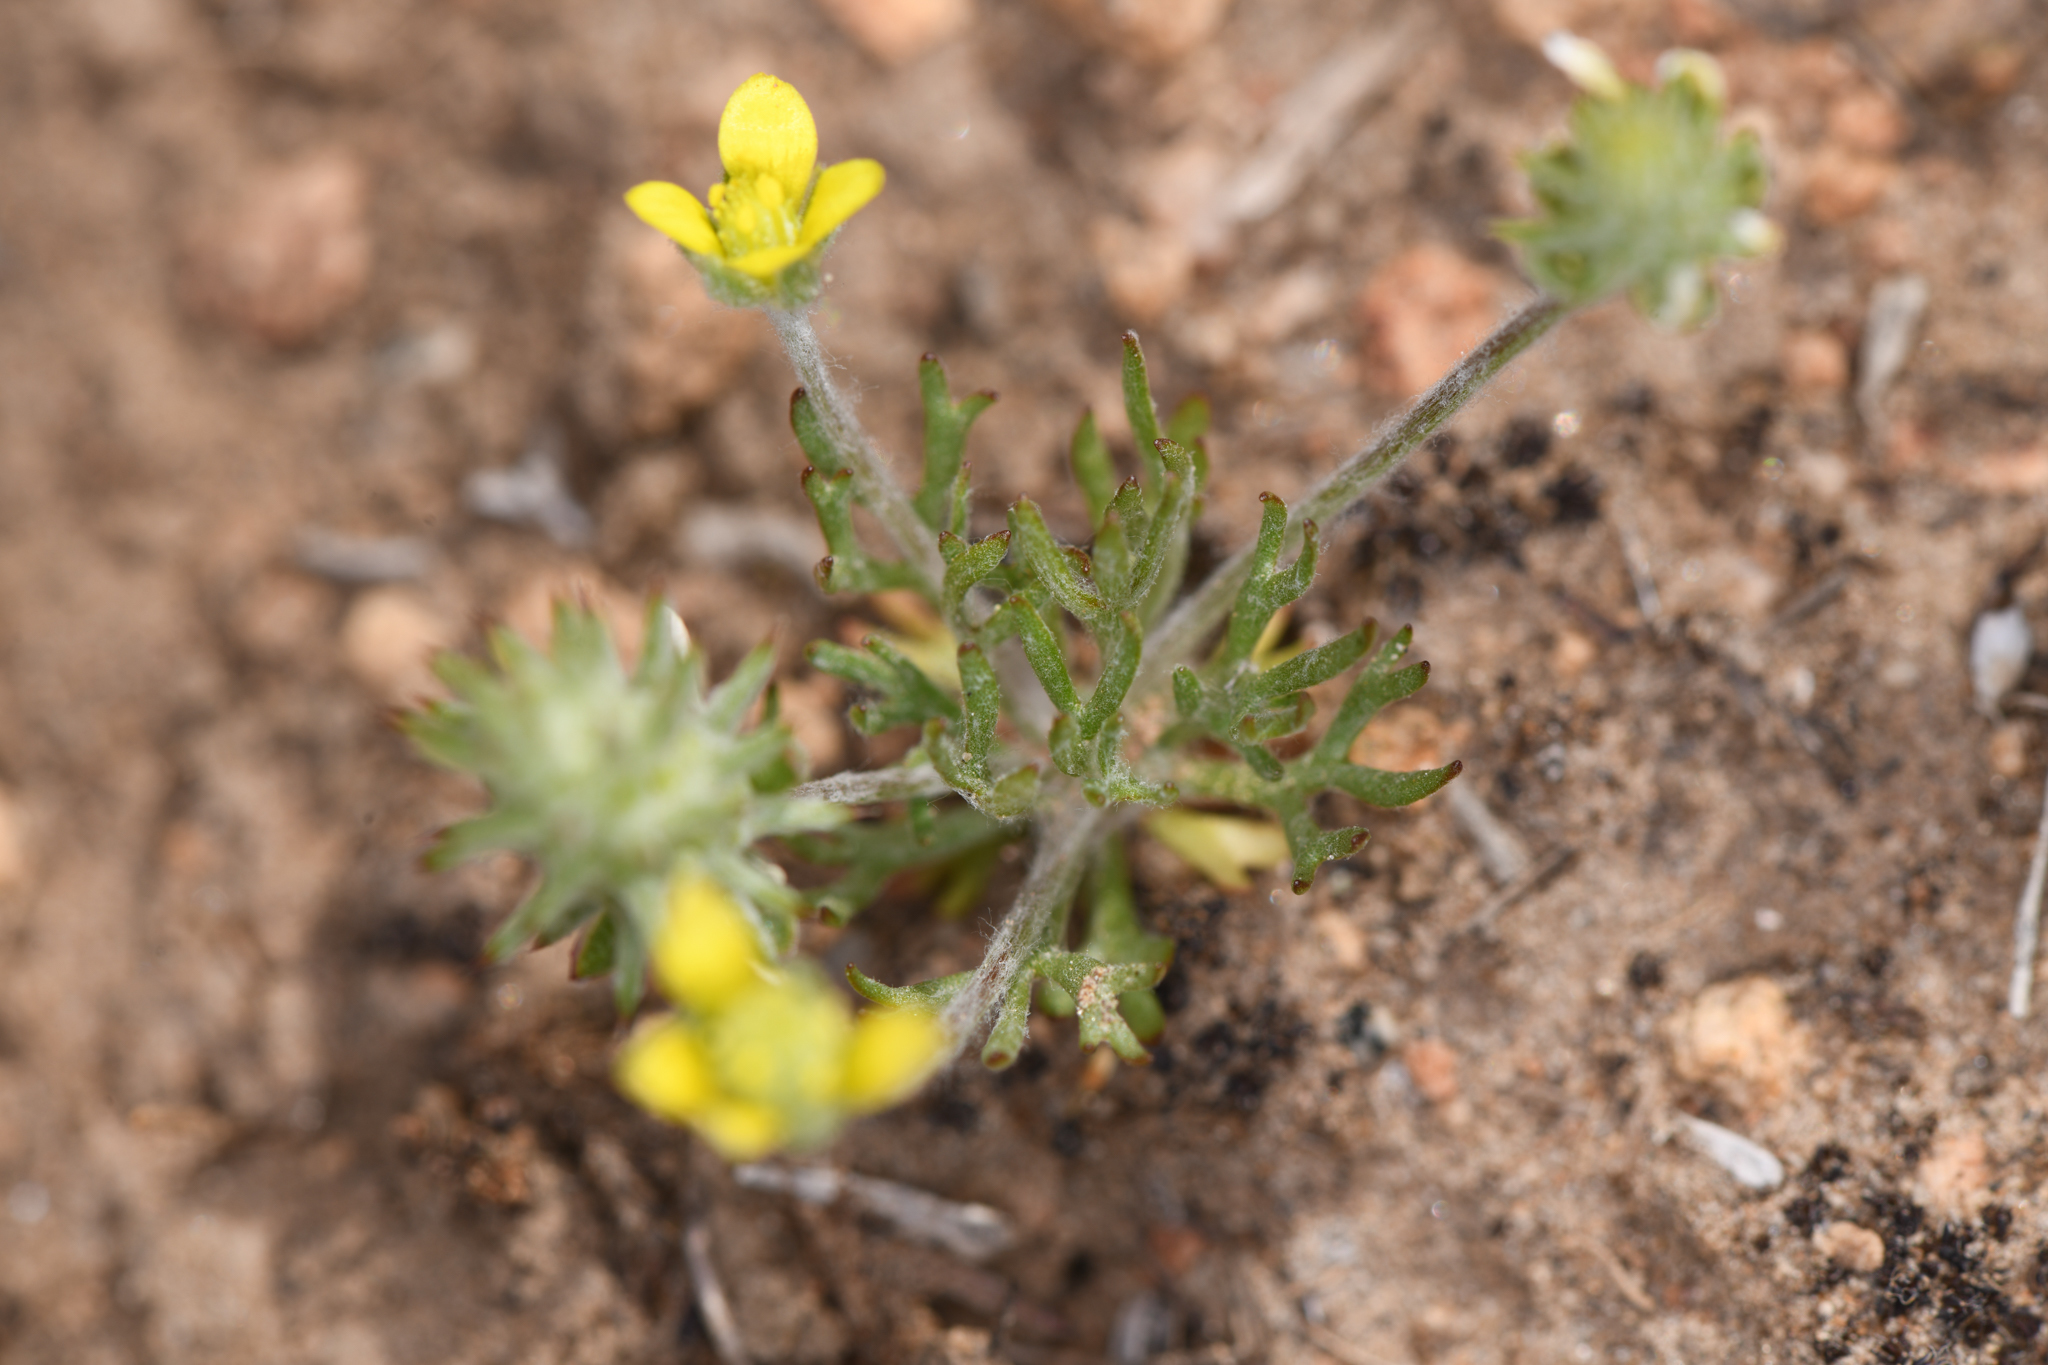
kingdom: Plantae
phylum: Tracheophyta
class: Magnoliopsida
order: Ranunculales
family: Ranunculaceae
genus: Ceratocephala
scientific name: Ceratocephala orthoceras
